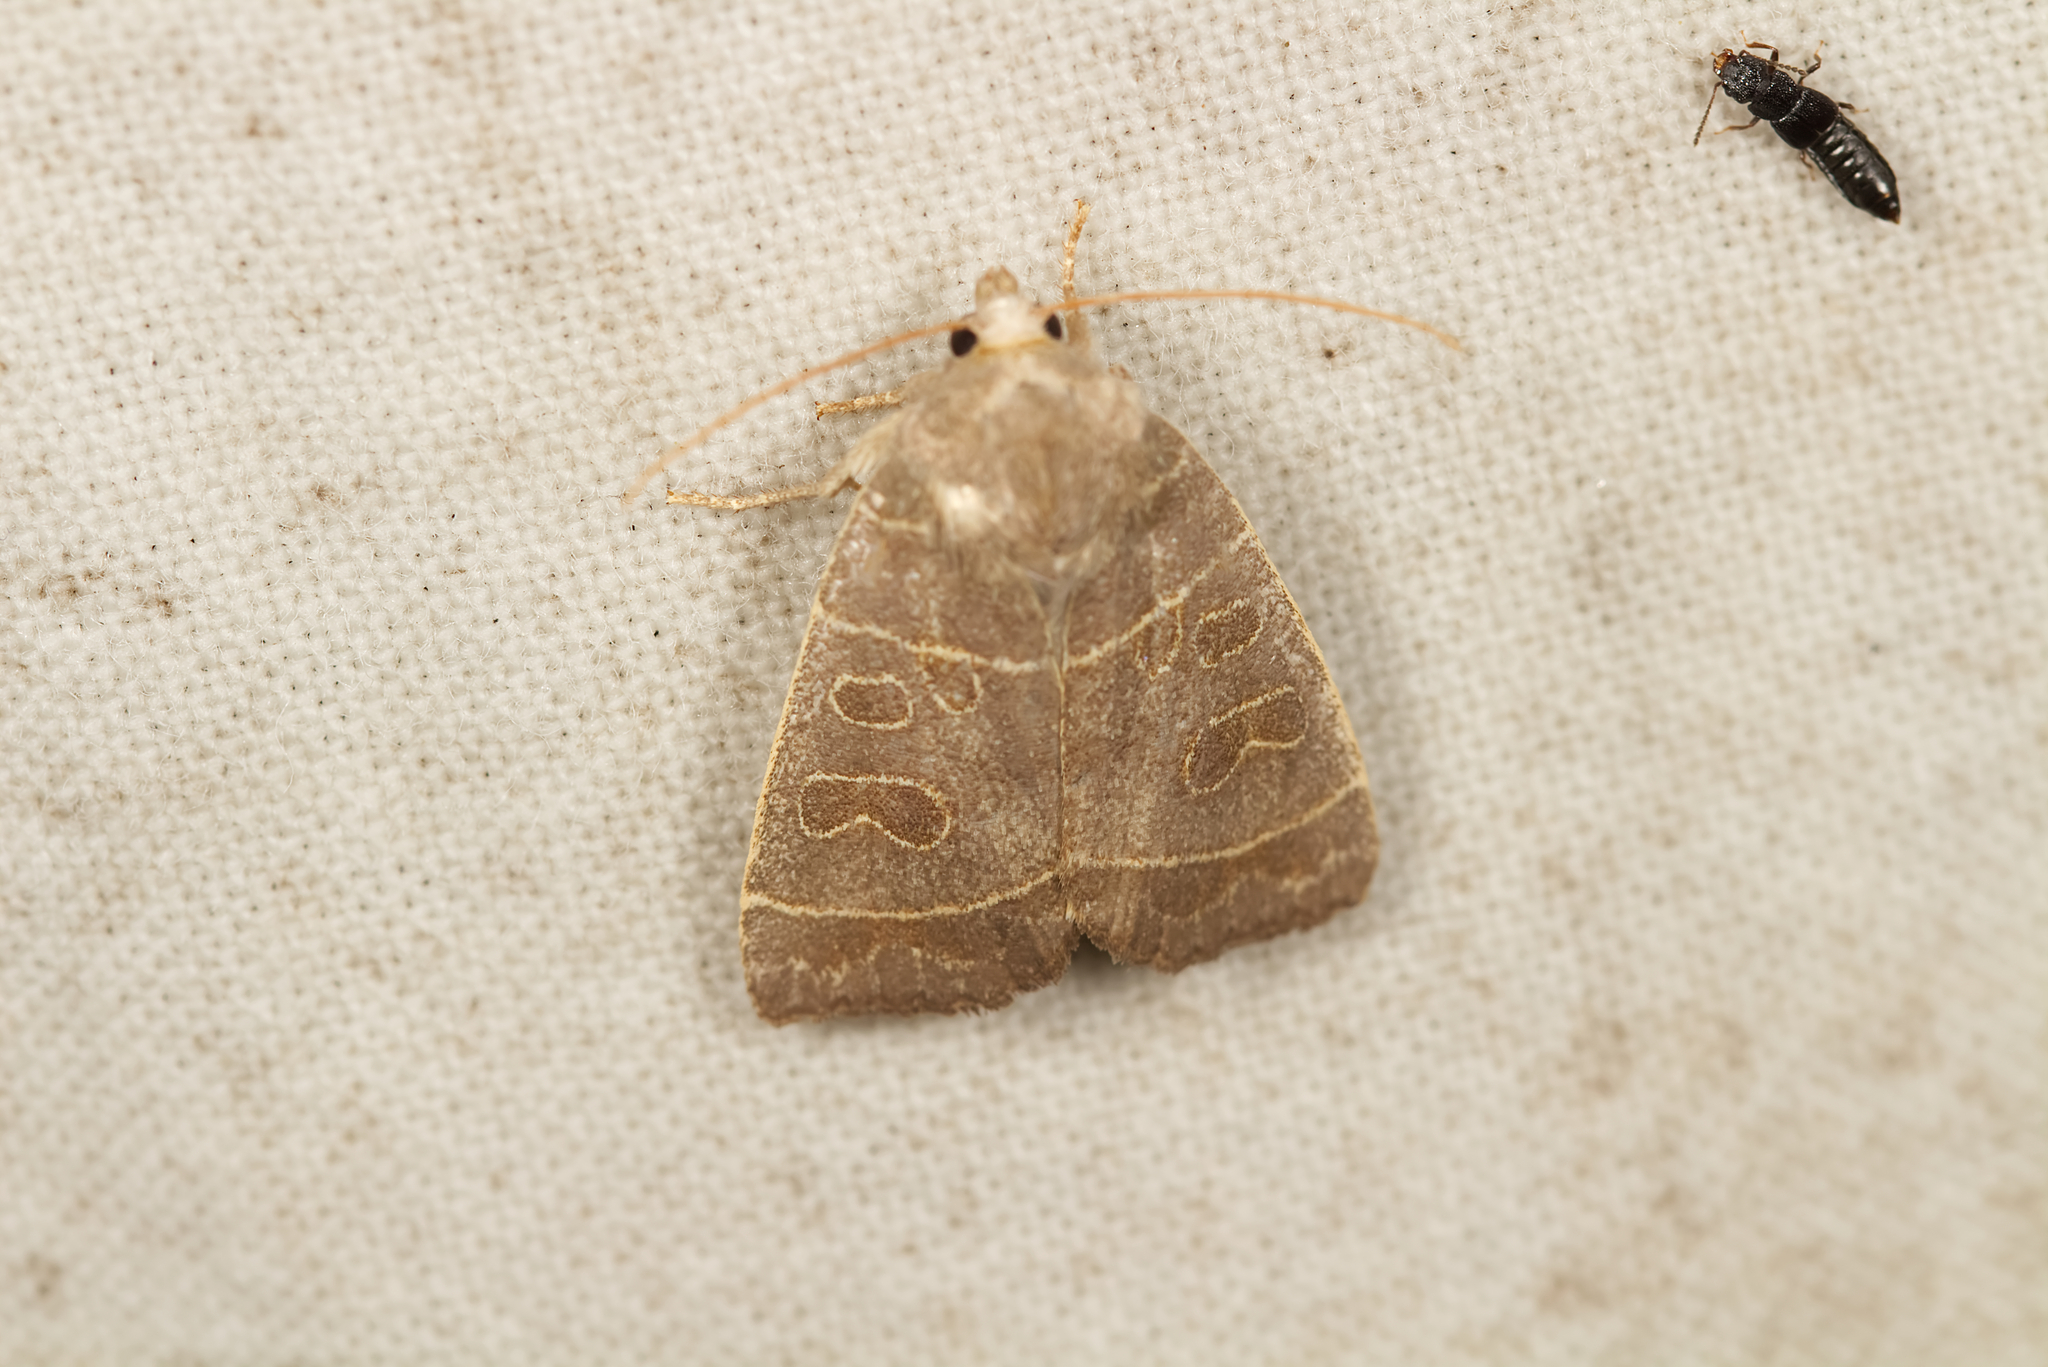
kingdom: Animalia
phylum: Arthropoda
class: Insecta
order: Lepidoptera
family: Noctuidae
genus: Ipimorpha
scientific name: Ipimorpha subtusa
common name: Olive
